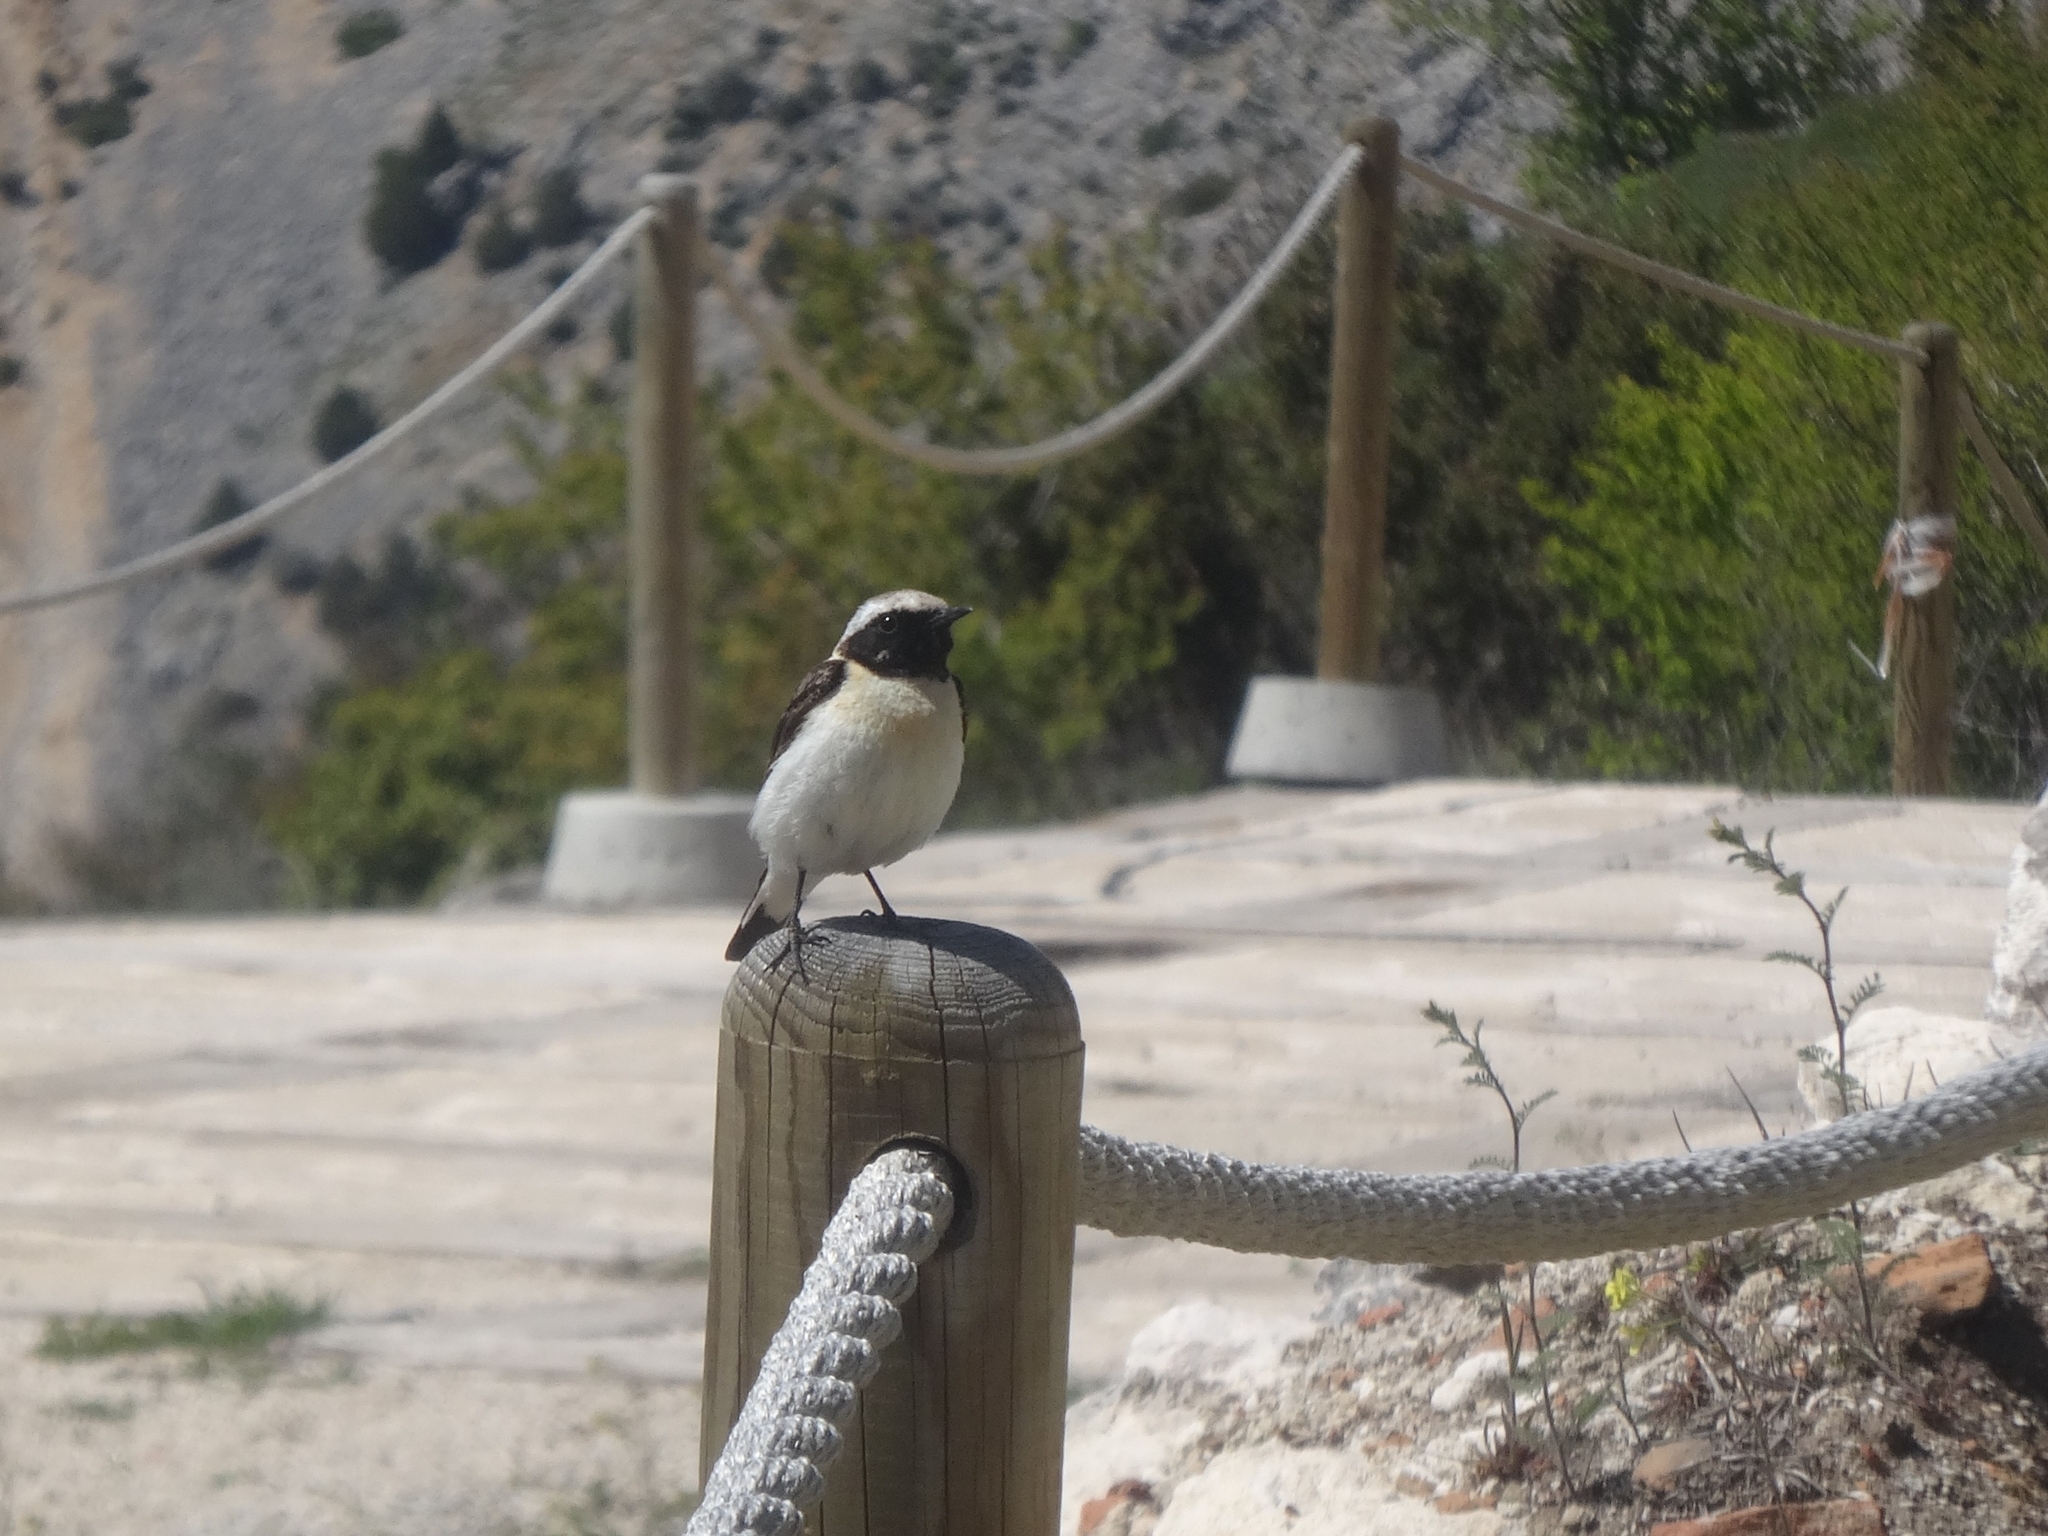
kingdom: Animalia
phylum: Chordata
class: Aves
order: Passeriformes
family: Muscicapidae
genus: Oenanthe
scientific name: Oenanthe hispanica
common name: Black-eared wheatear
